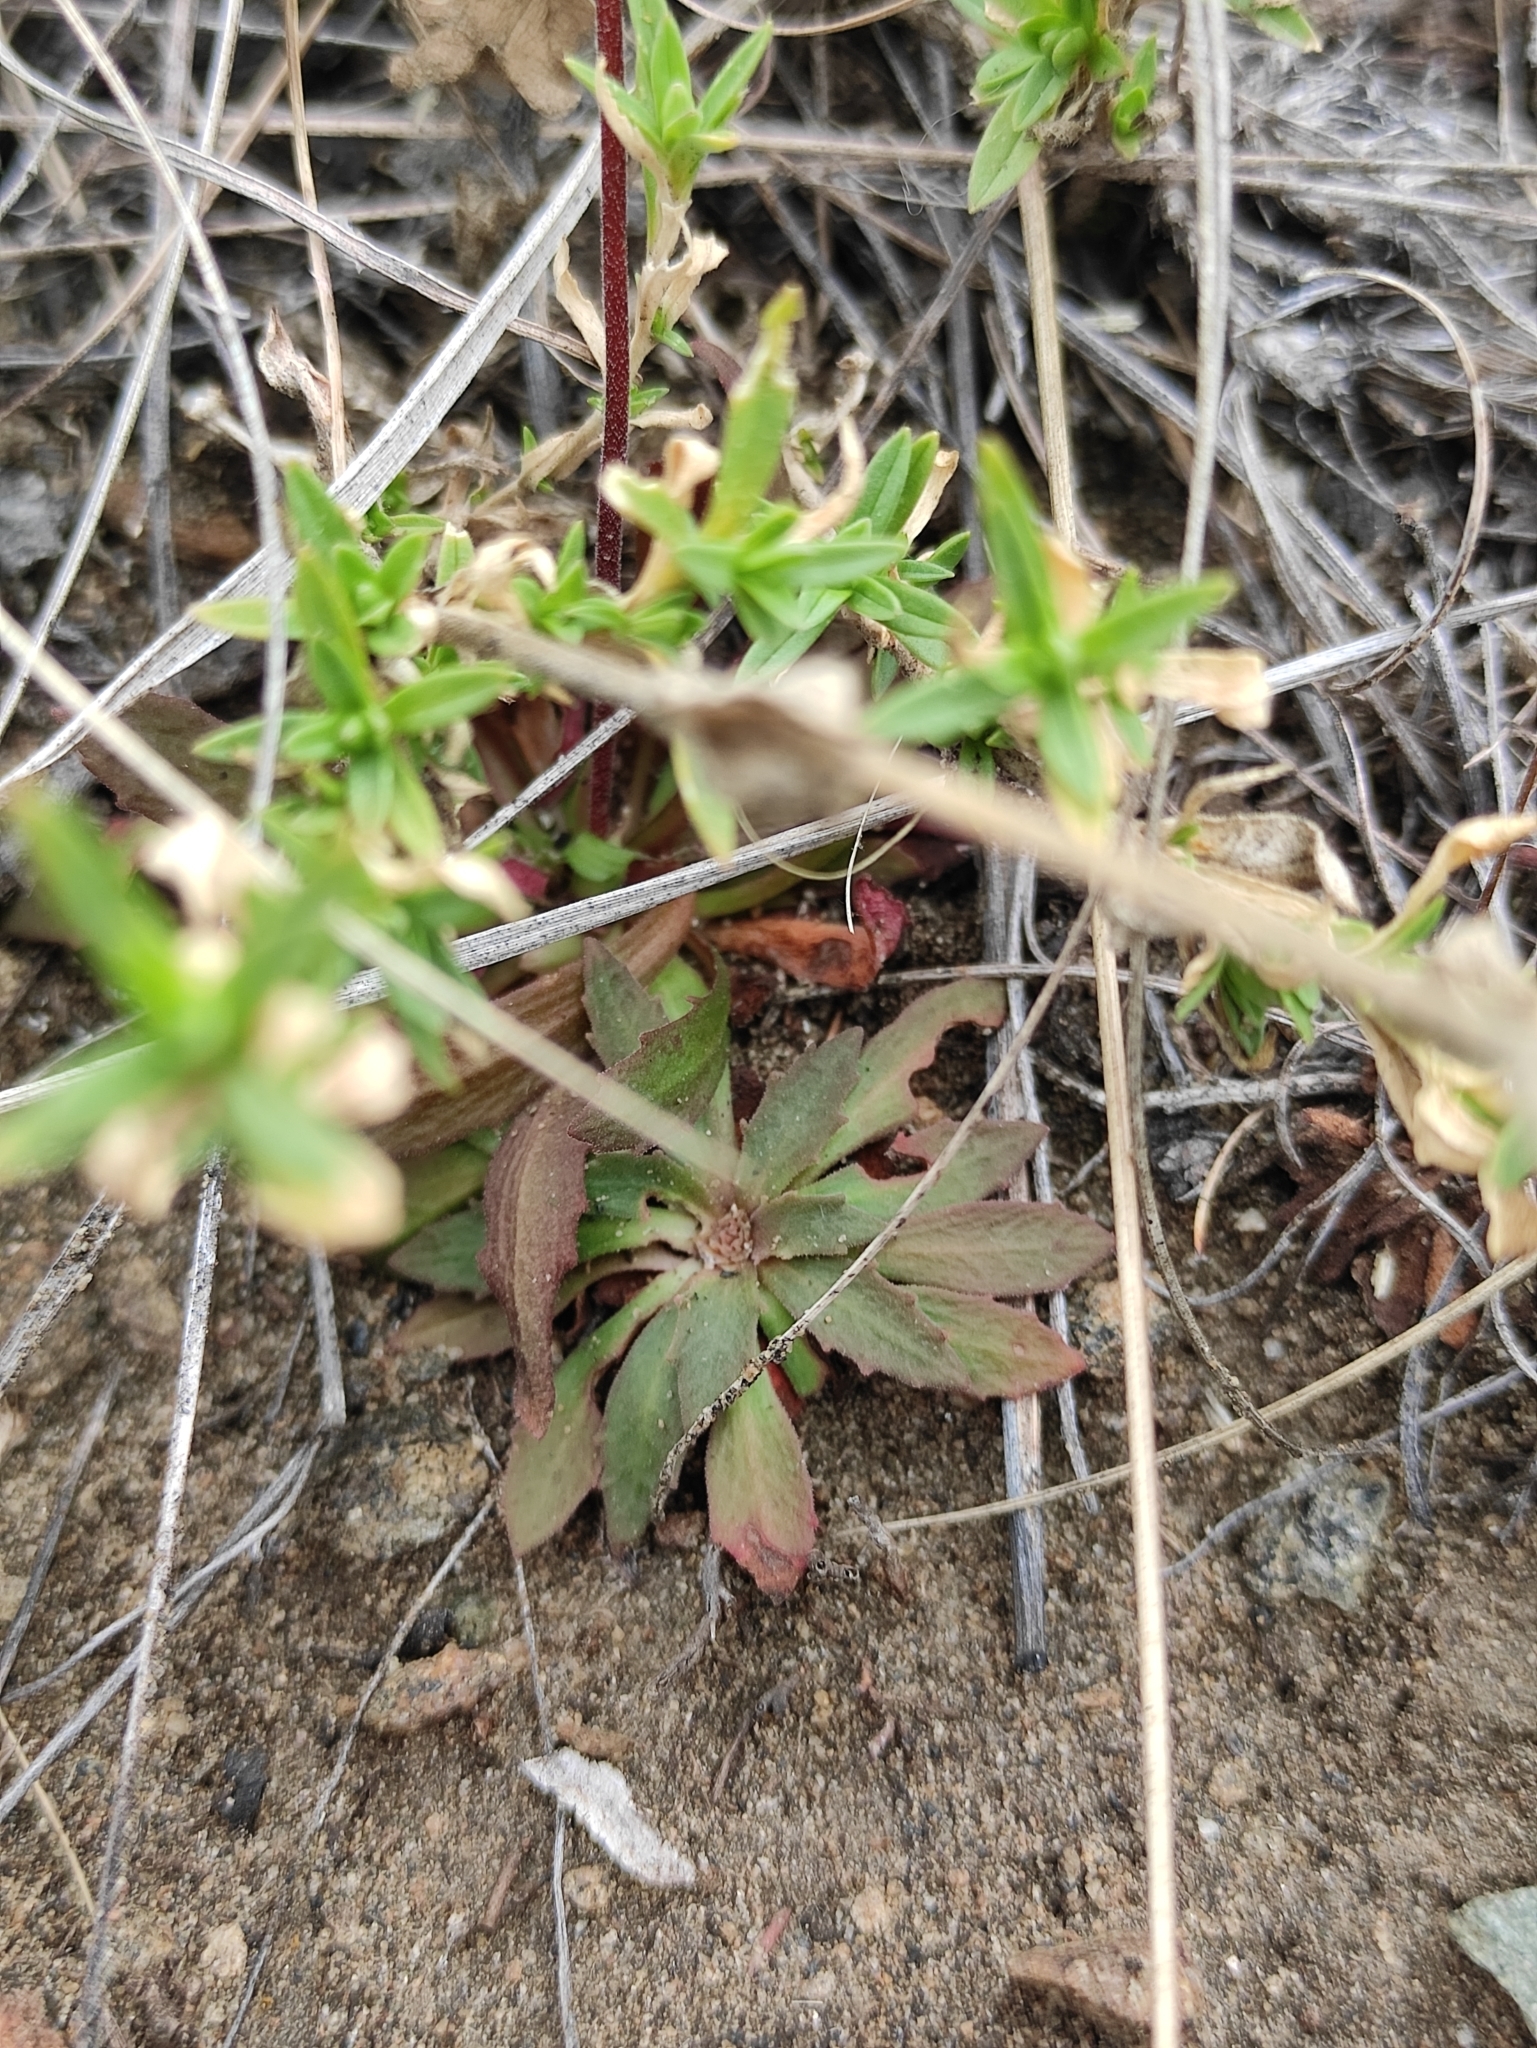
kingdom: Plantae
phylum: Tracheophyta
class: Magnoliopsida
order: Ericales
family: Primulaceae
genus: Androsace
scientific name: Androsace septentrionalis
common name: Hairy northern fairy-candelabra
